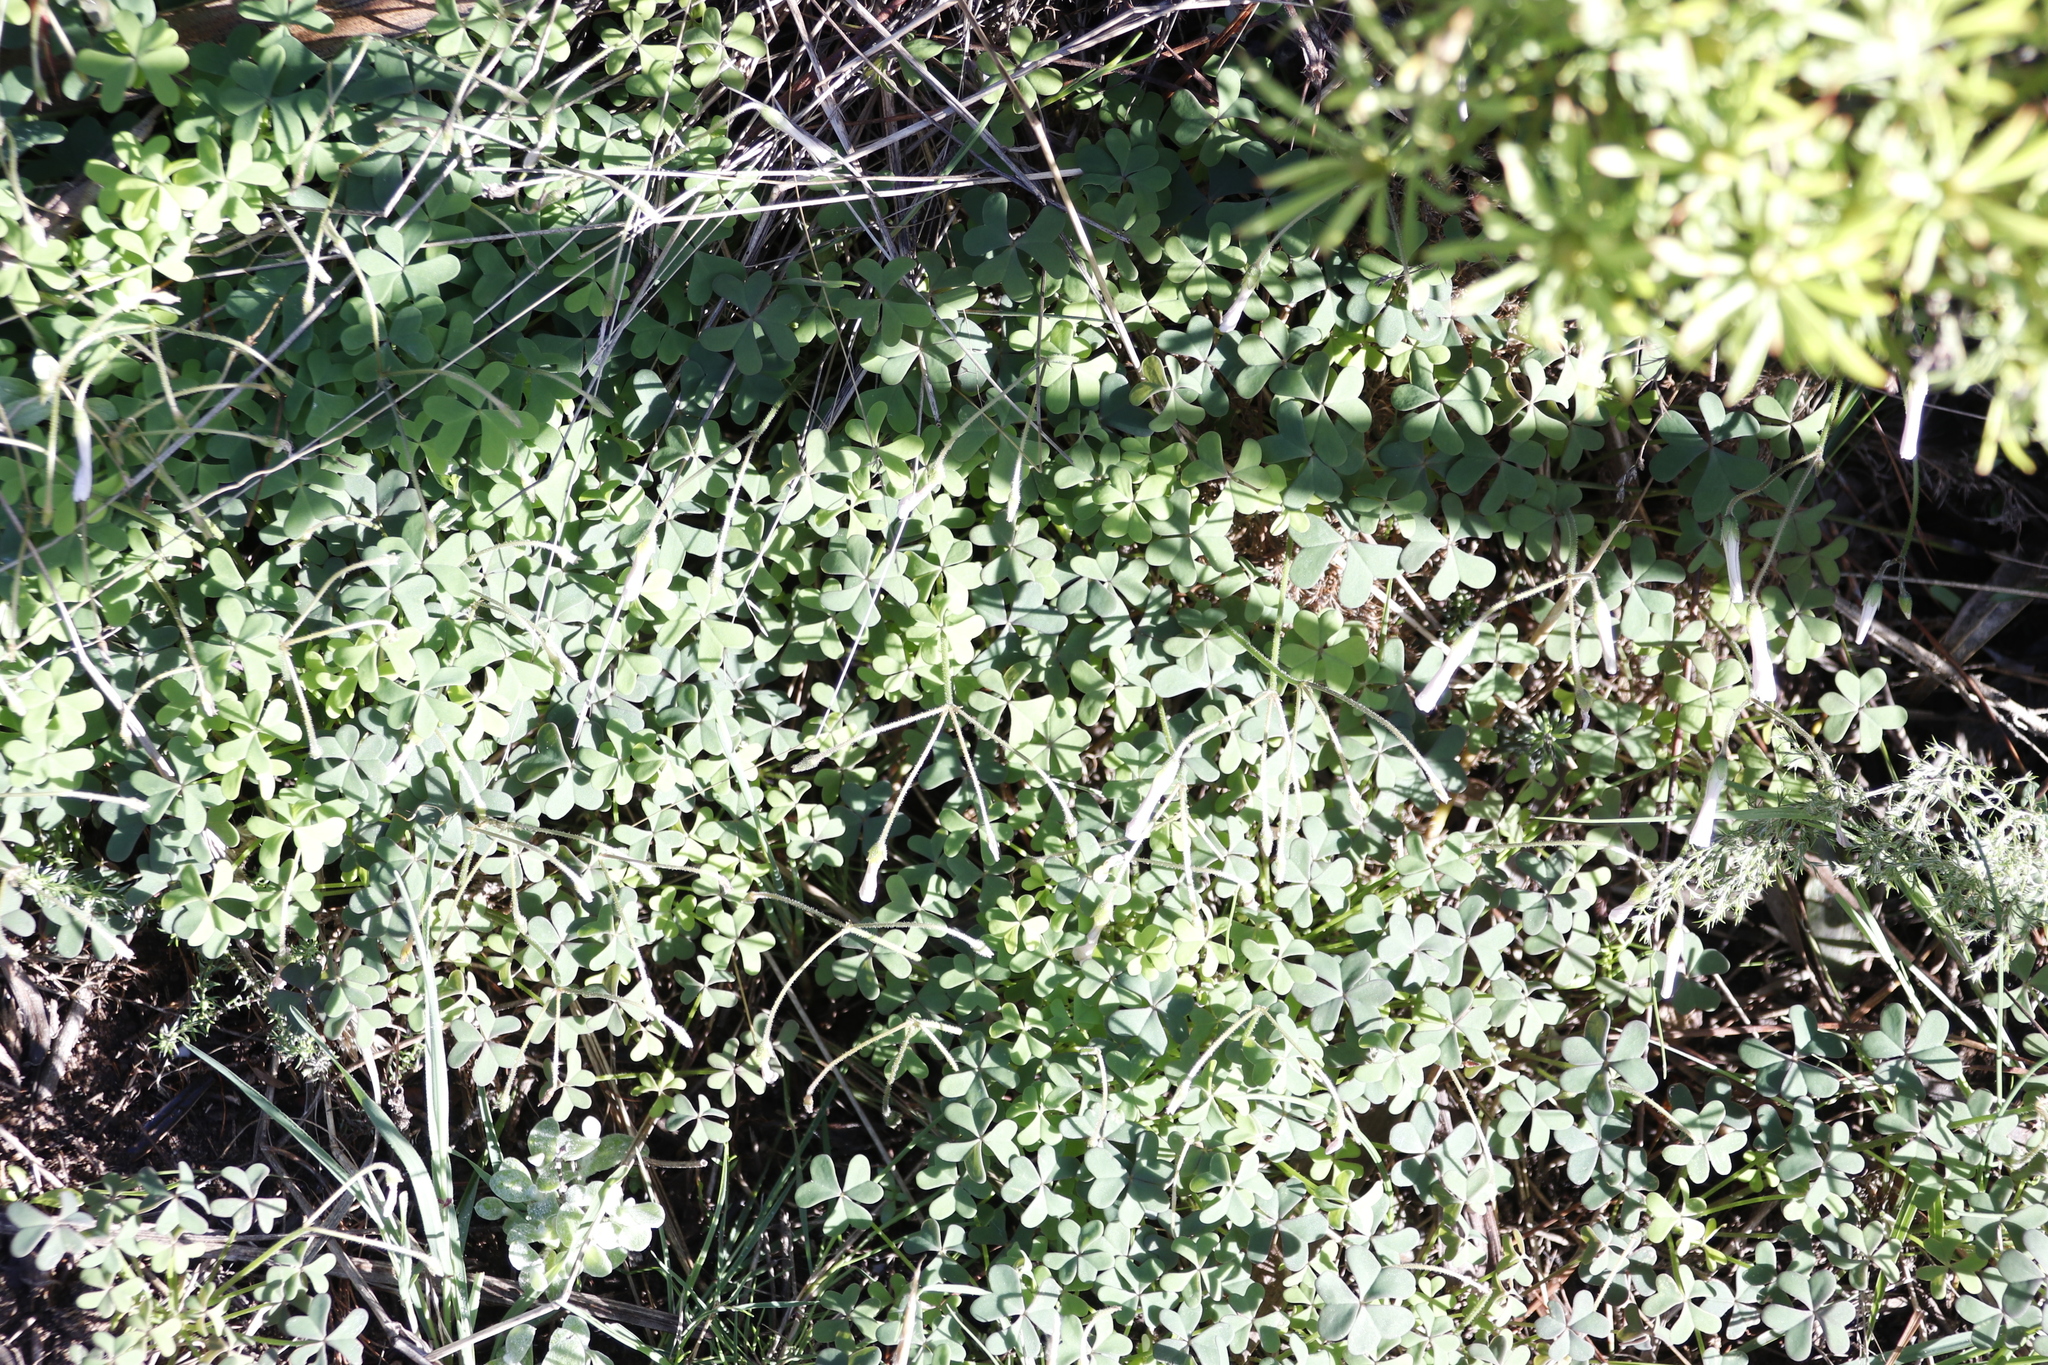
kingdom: Plantae
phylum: Tracheophyta
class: Magnoliopsida
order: Oxalidales
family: Oxalidaceae
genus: Oxalis
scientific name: Oxalis pes-caprae
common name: Bermuda-buttercup
